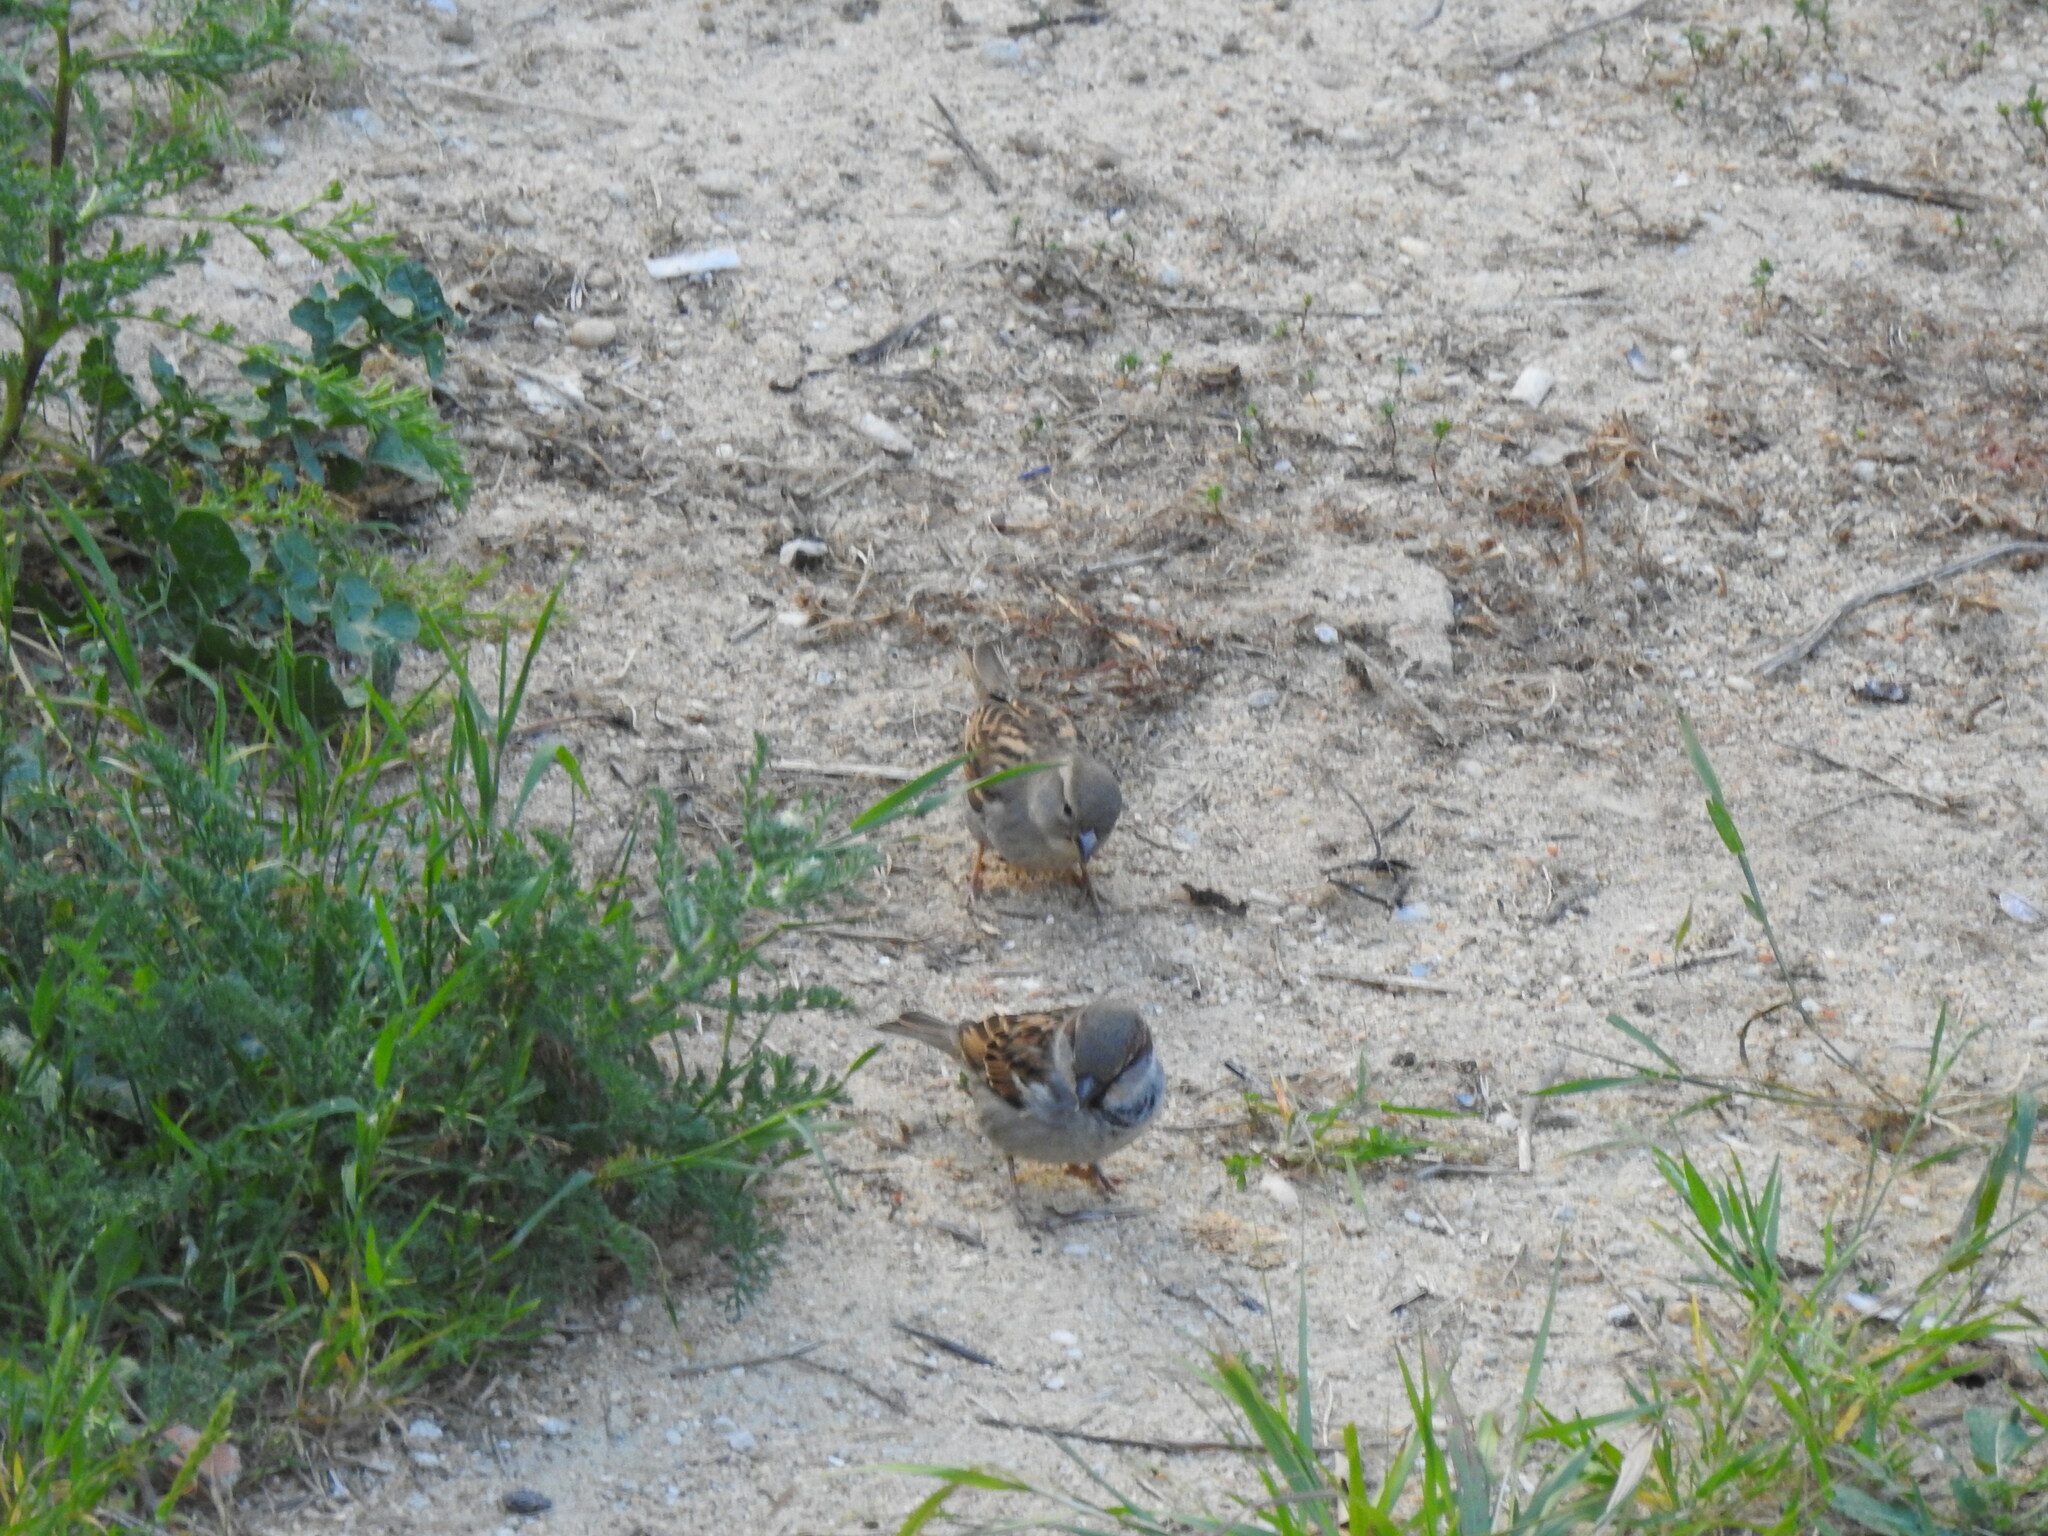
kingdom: Animalia
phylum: Chordata
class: Aves
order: Passeriformes
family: Passeridae
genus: Passer
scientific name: Passer domesticus
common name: House sparrow
